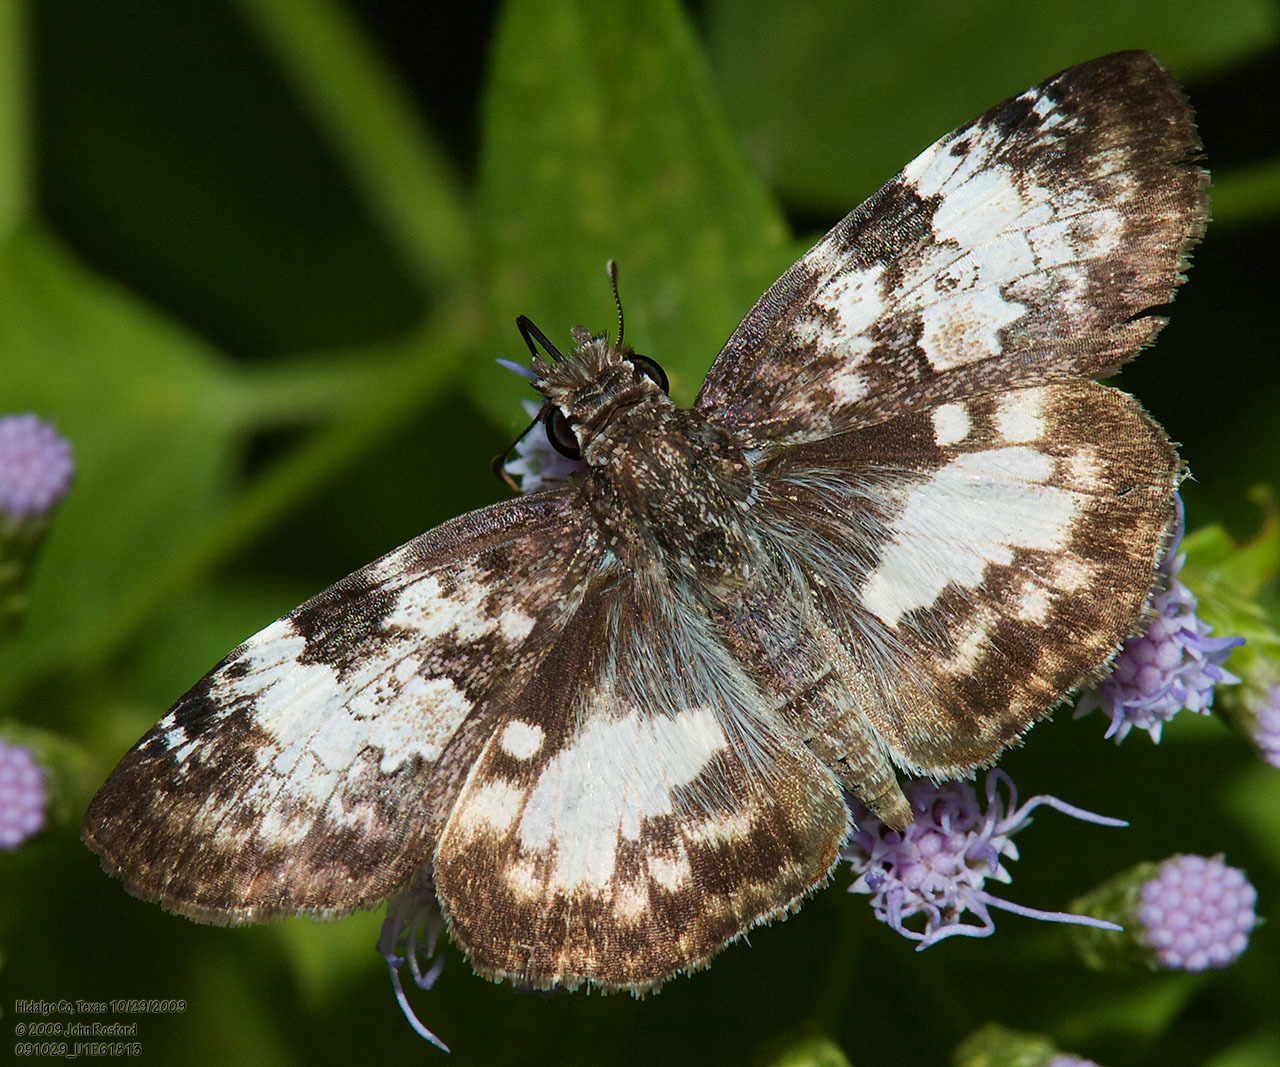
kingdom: Animalia
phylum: Arthropoda
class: Insecta
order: Lepidoptera
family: Hesperiidae
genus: Chiothion
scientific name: Chiothion georgina
